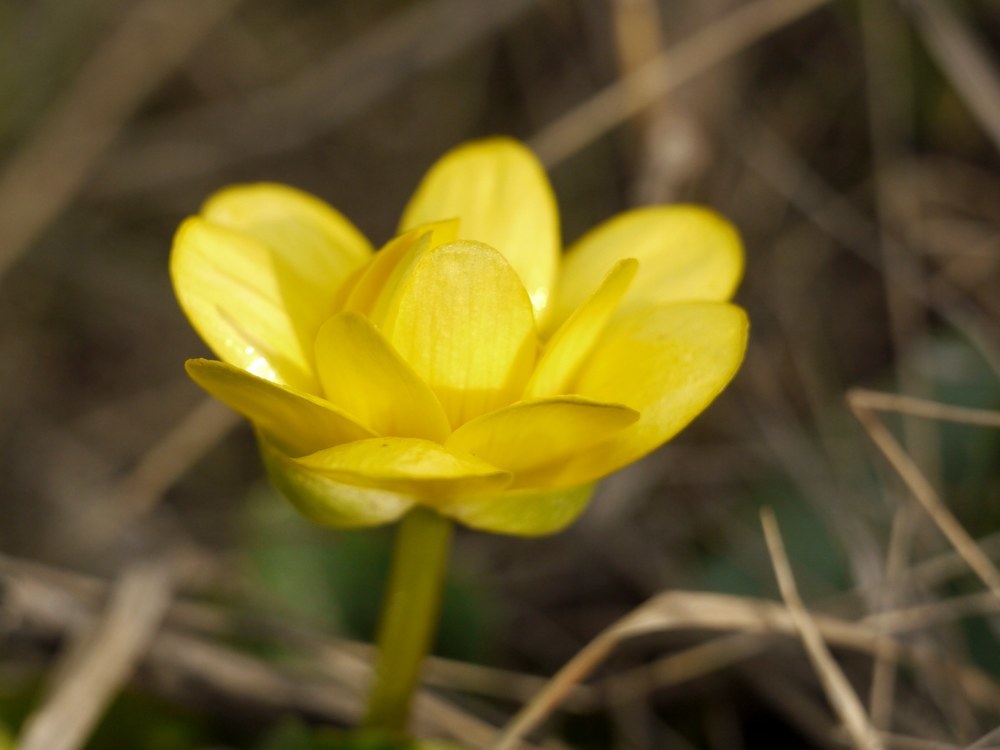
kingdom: Plantae
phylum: Tracheophyta
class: Magnoliopsida
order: Ranunculales
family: Ranunculaceae
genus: Ficaria
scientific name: Ficaria verna
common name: Lesser celandine
